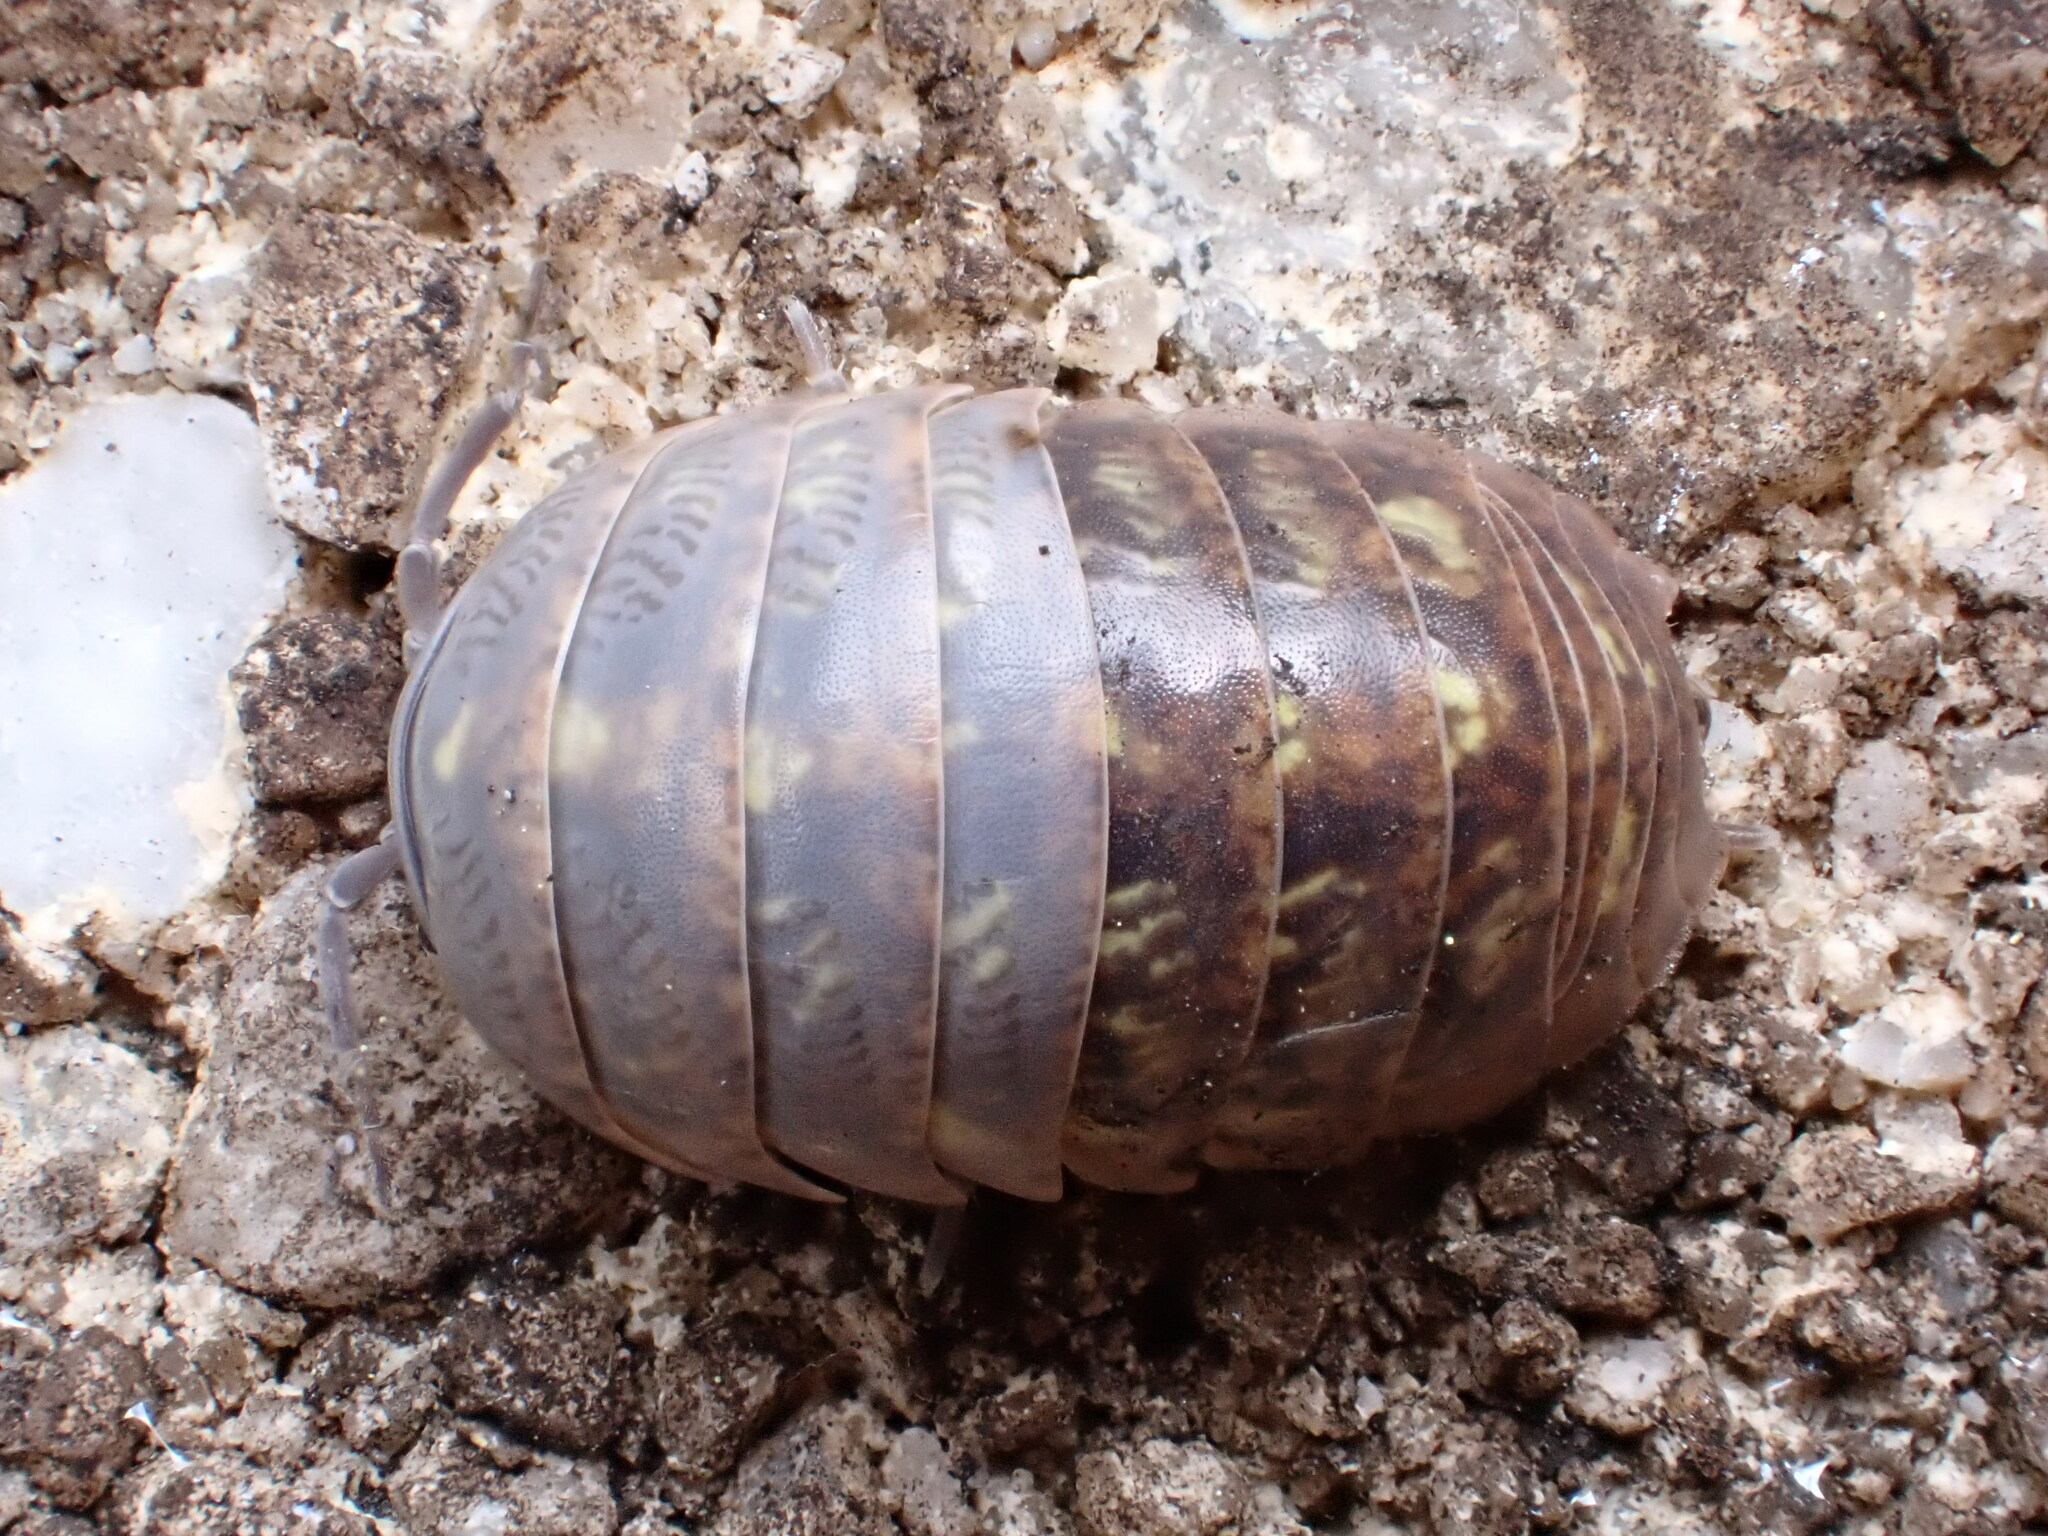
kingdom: Animalia
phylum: Arthropoda
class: Malacostraca
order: Isopoda
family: Armadillidiidae
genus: Armadillidium
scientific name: Armadillidium vulgare
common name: Common pill woodlouse
